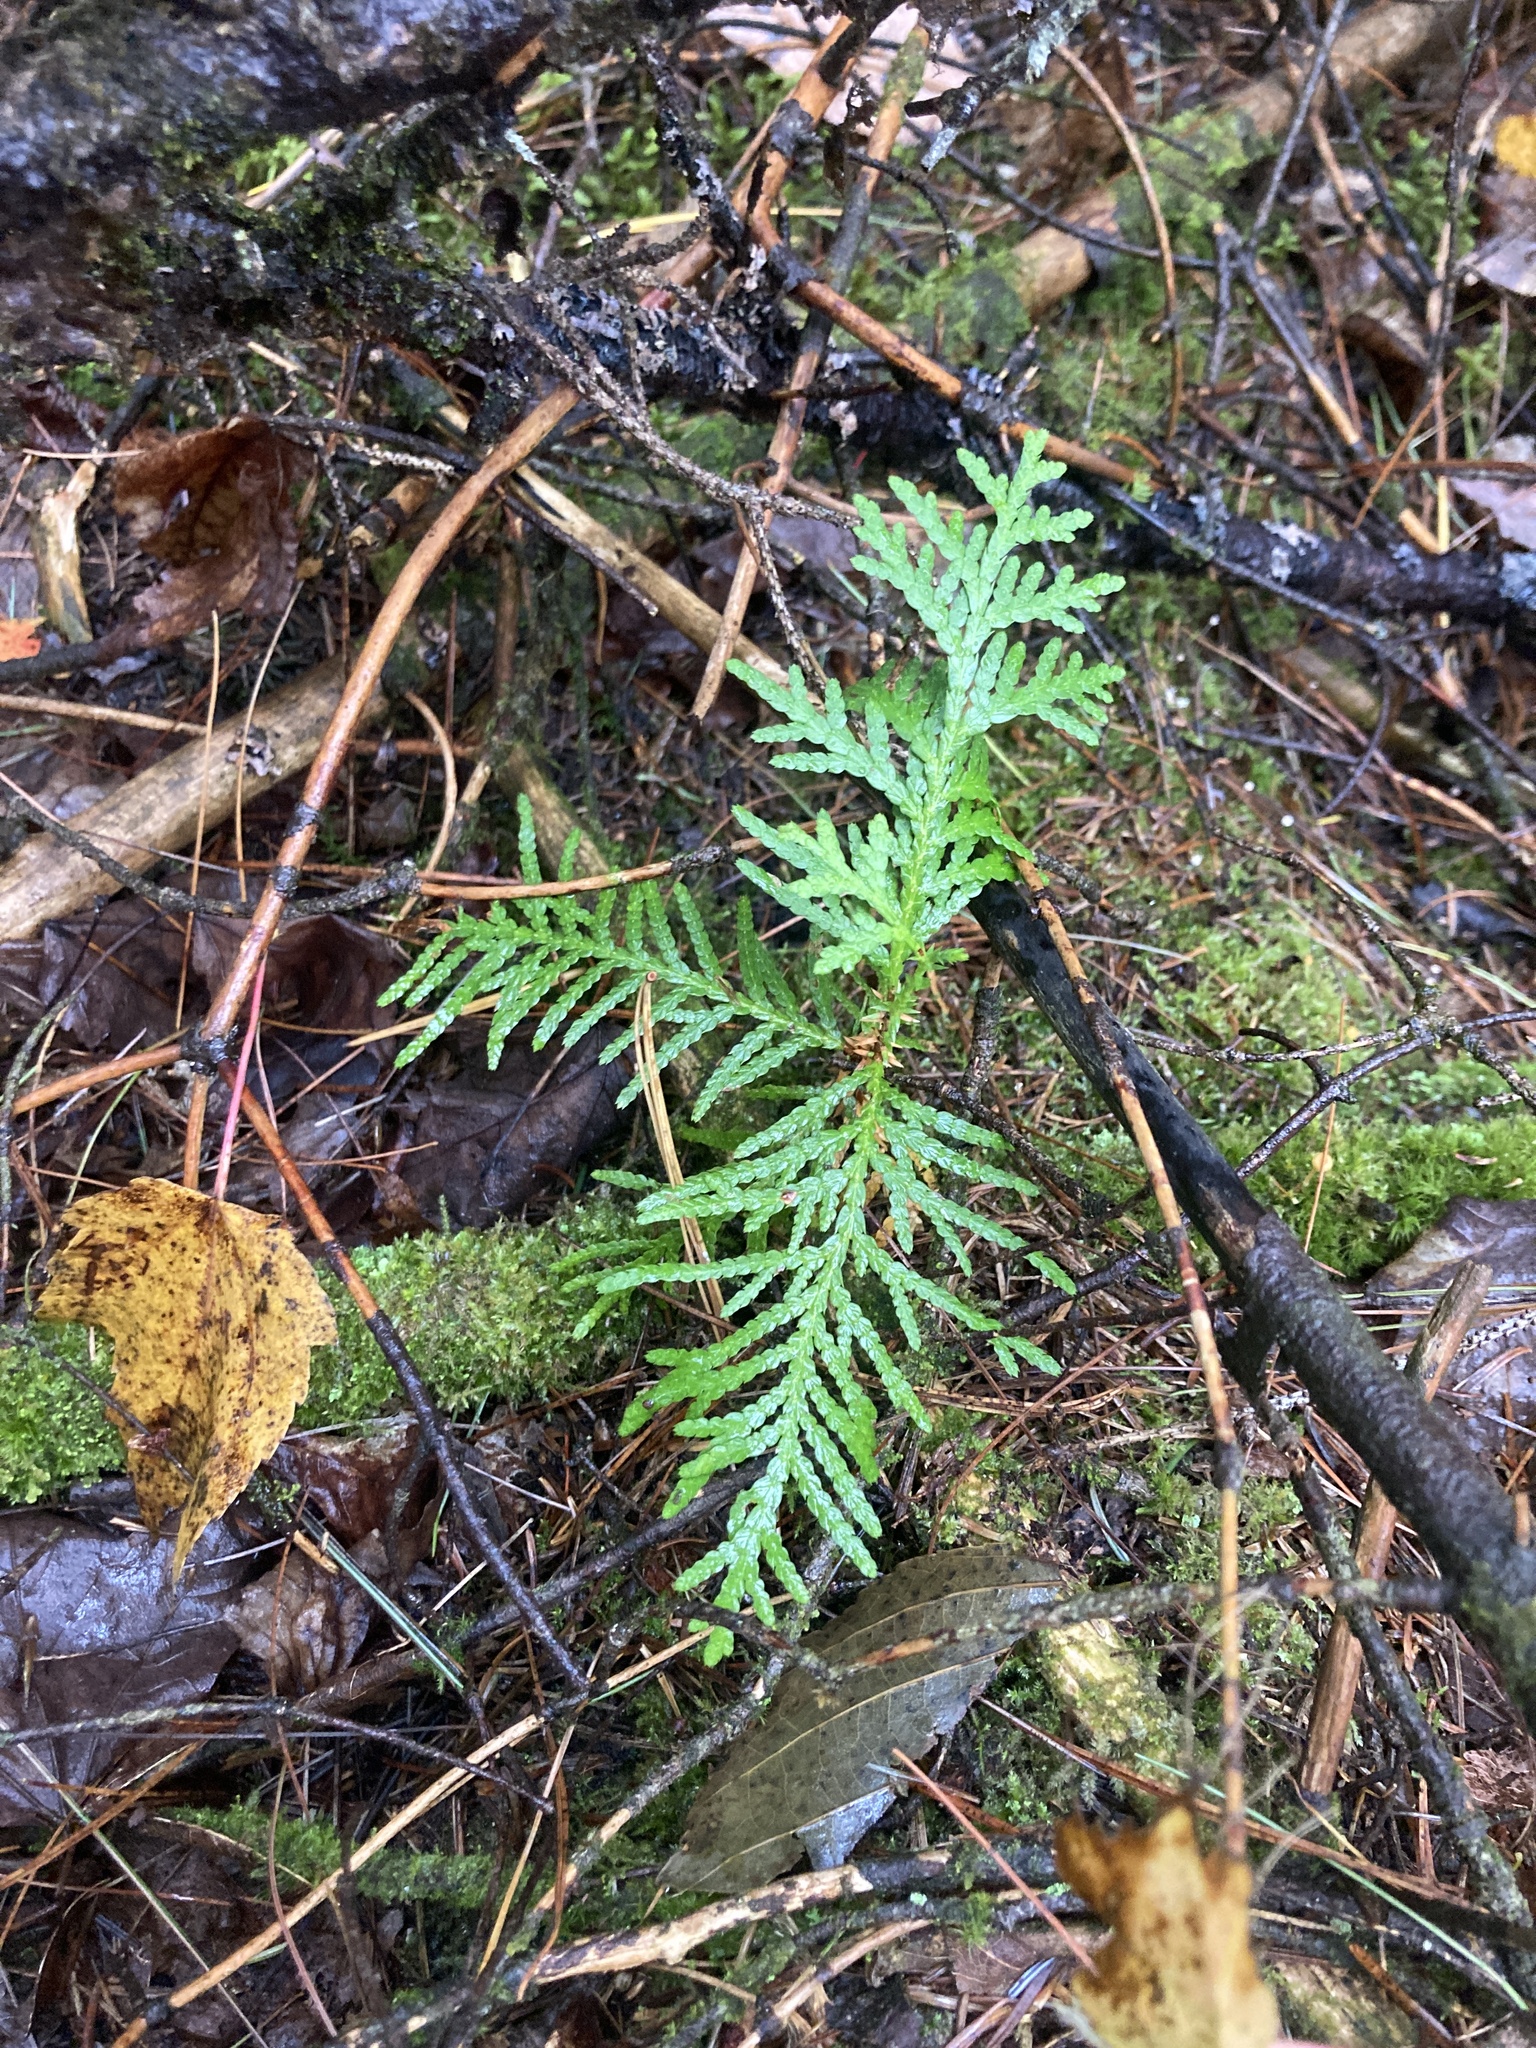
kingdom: Plantae
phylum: Tracheophyta
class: Pinopsida
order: Pinales
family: Cupressaceae
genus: Thuja
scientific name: Thuja occidentalis
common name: Northern white-cedar
